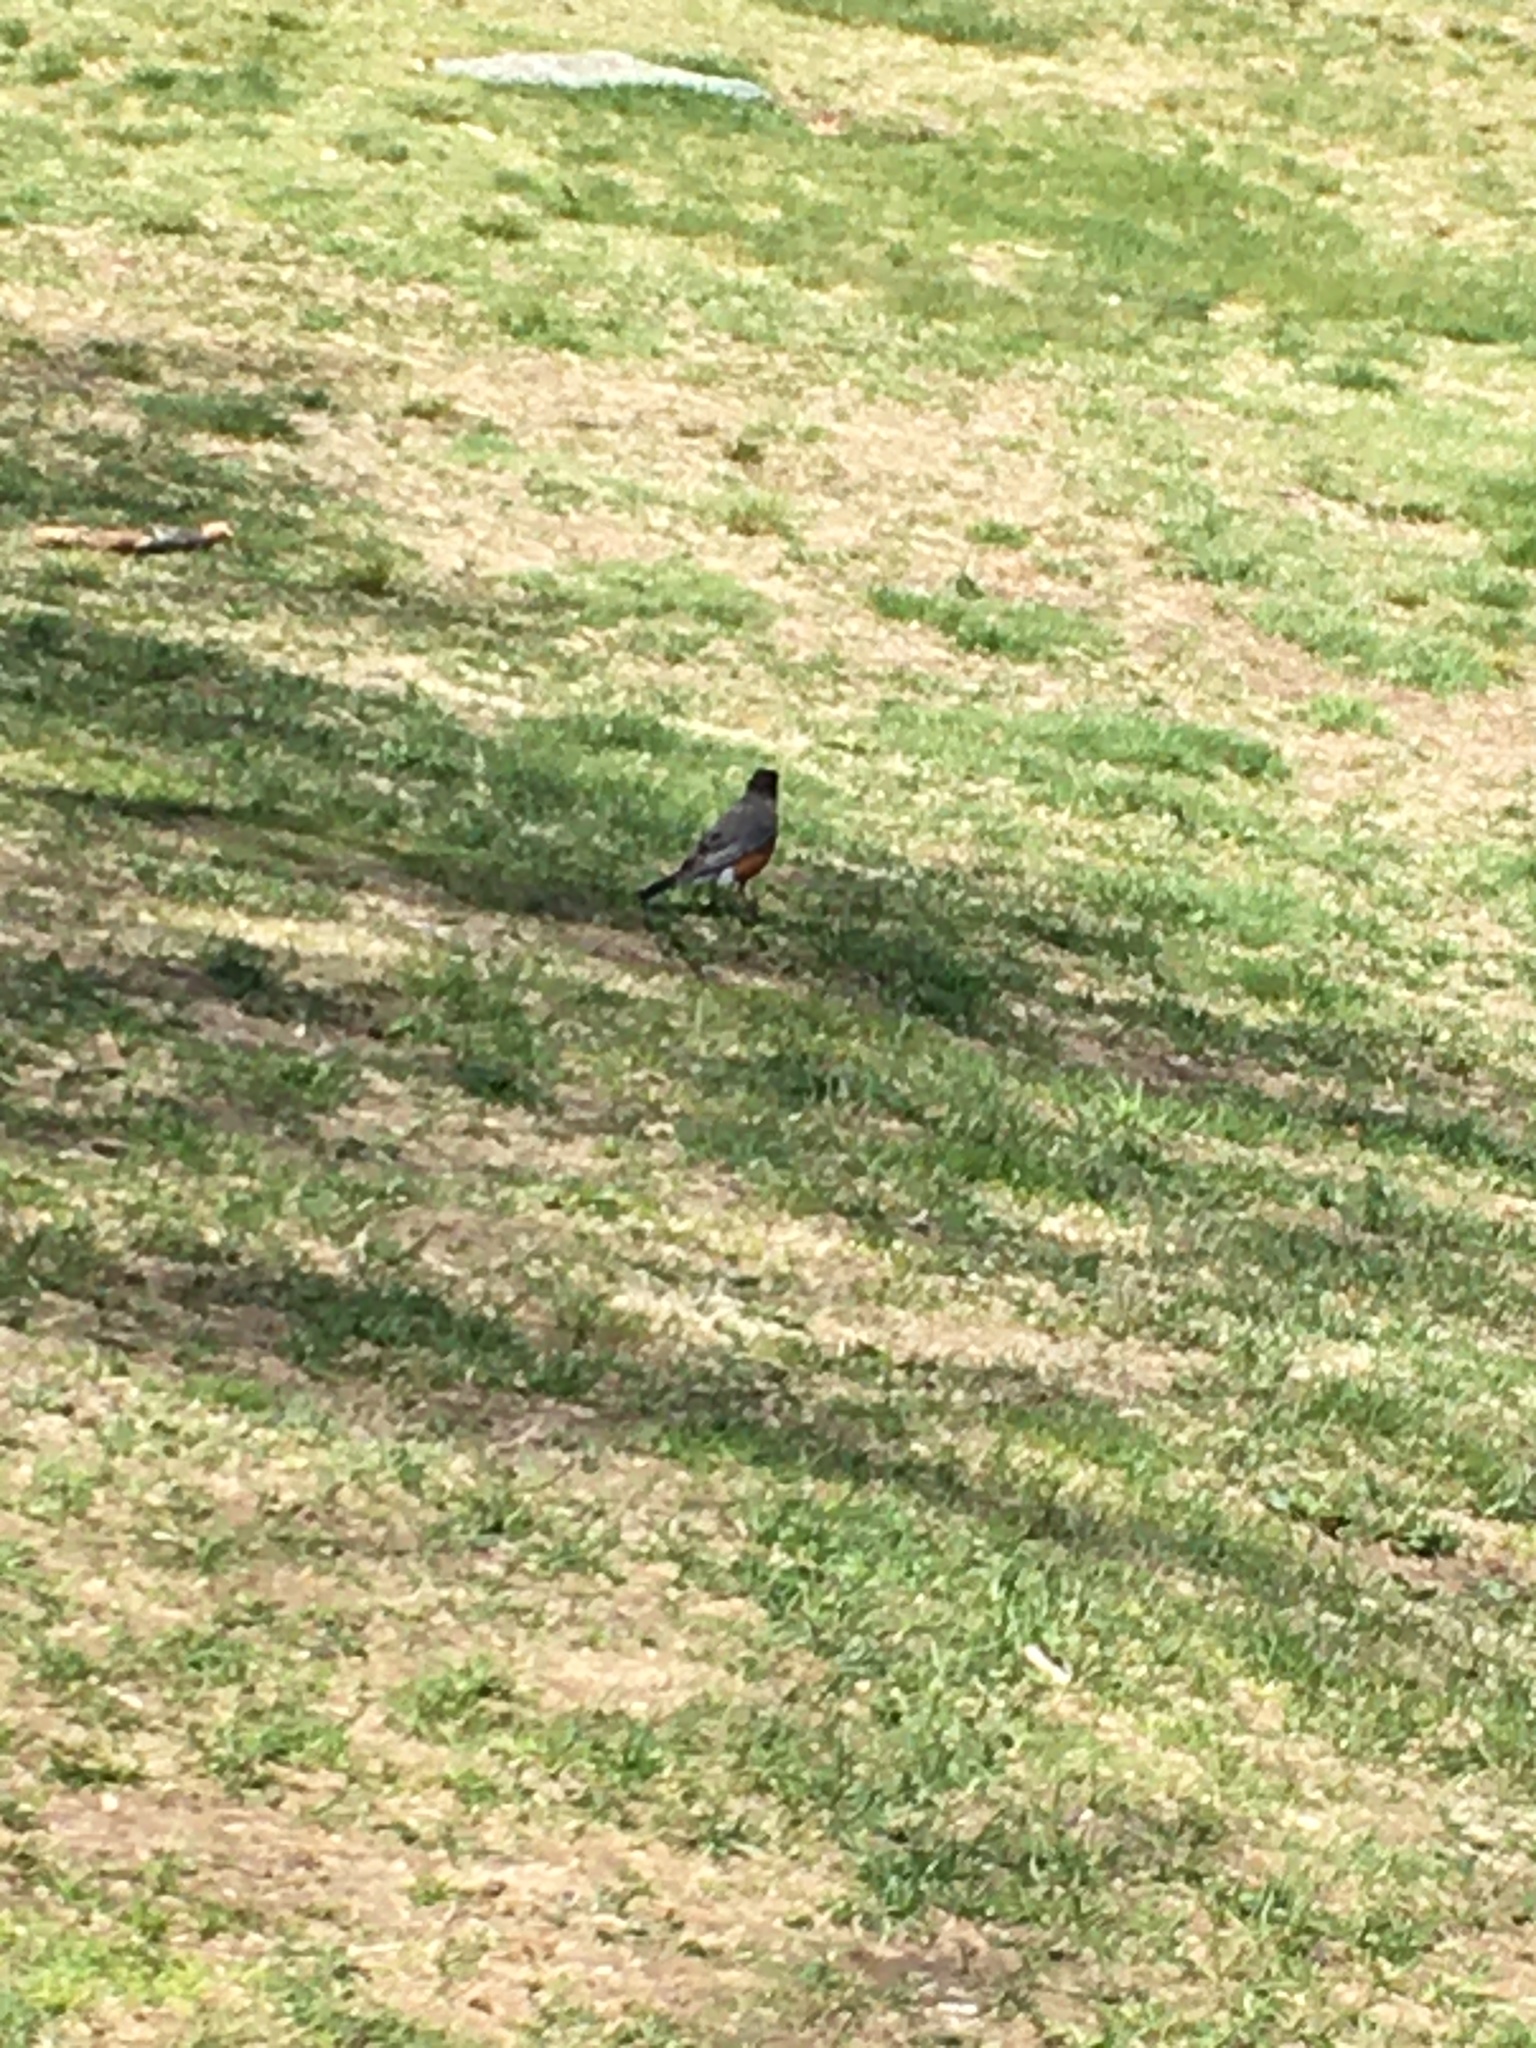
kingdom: Animalia
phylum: Chordata
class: Aves
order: Passeriformes
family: Turdidae
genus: Turdus
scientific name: Turdus migratorius
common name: American robin
